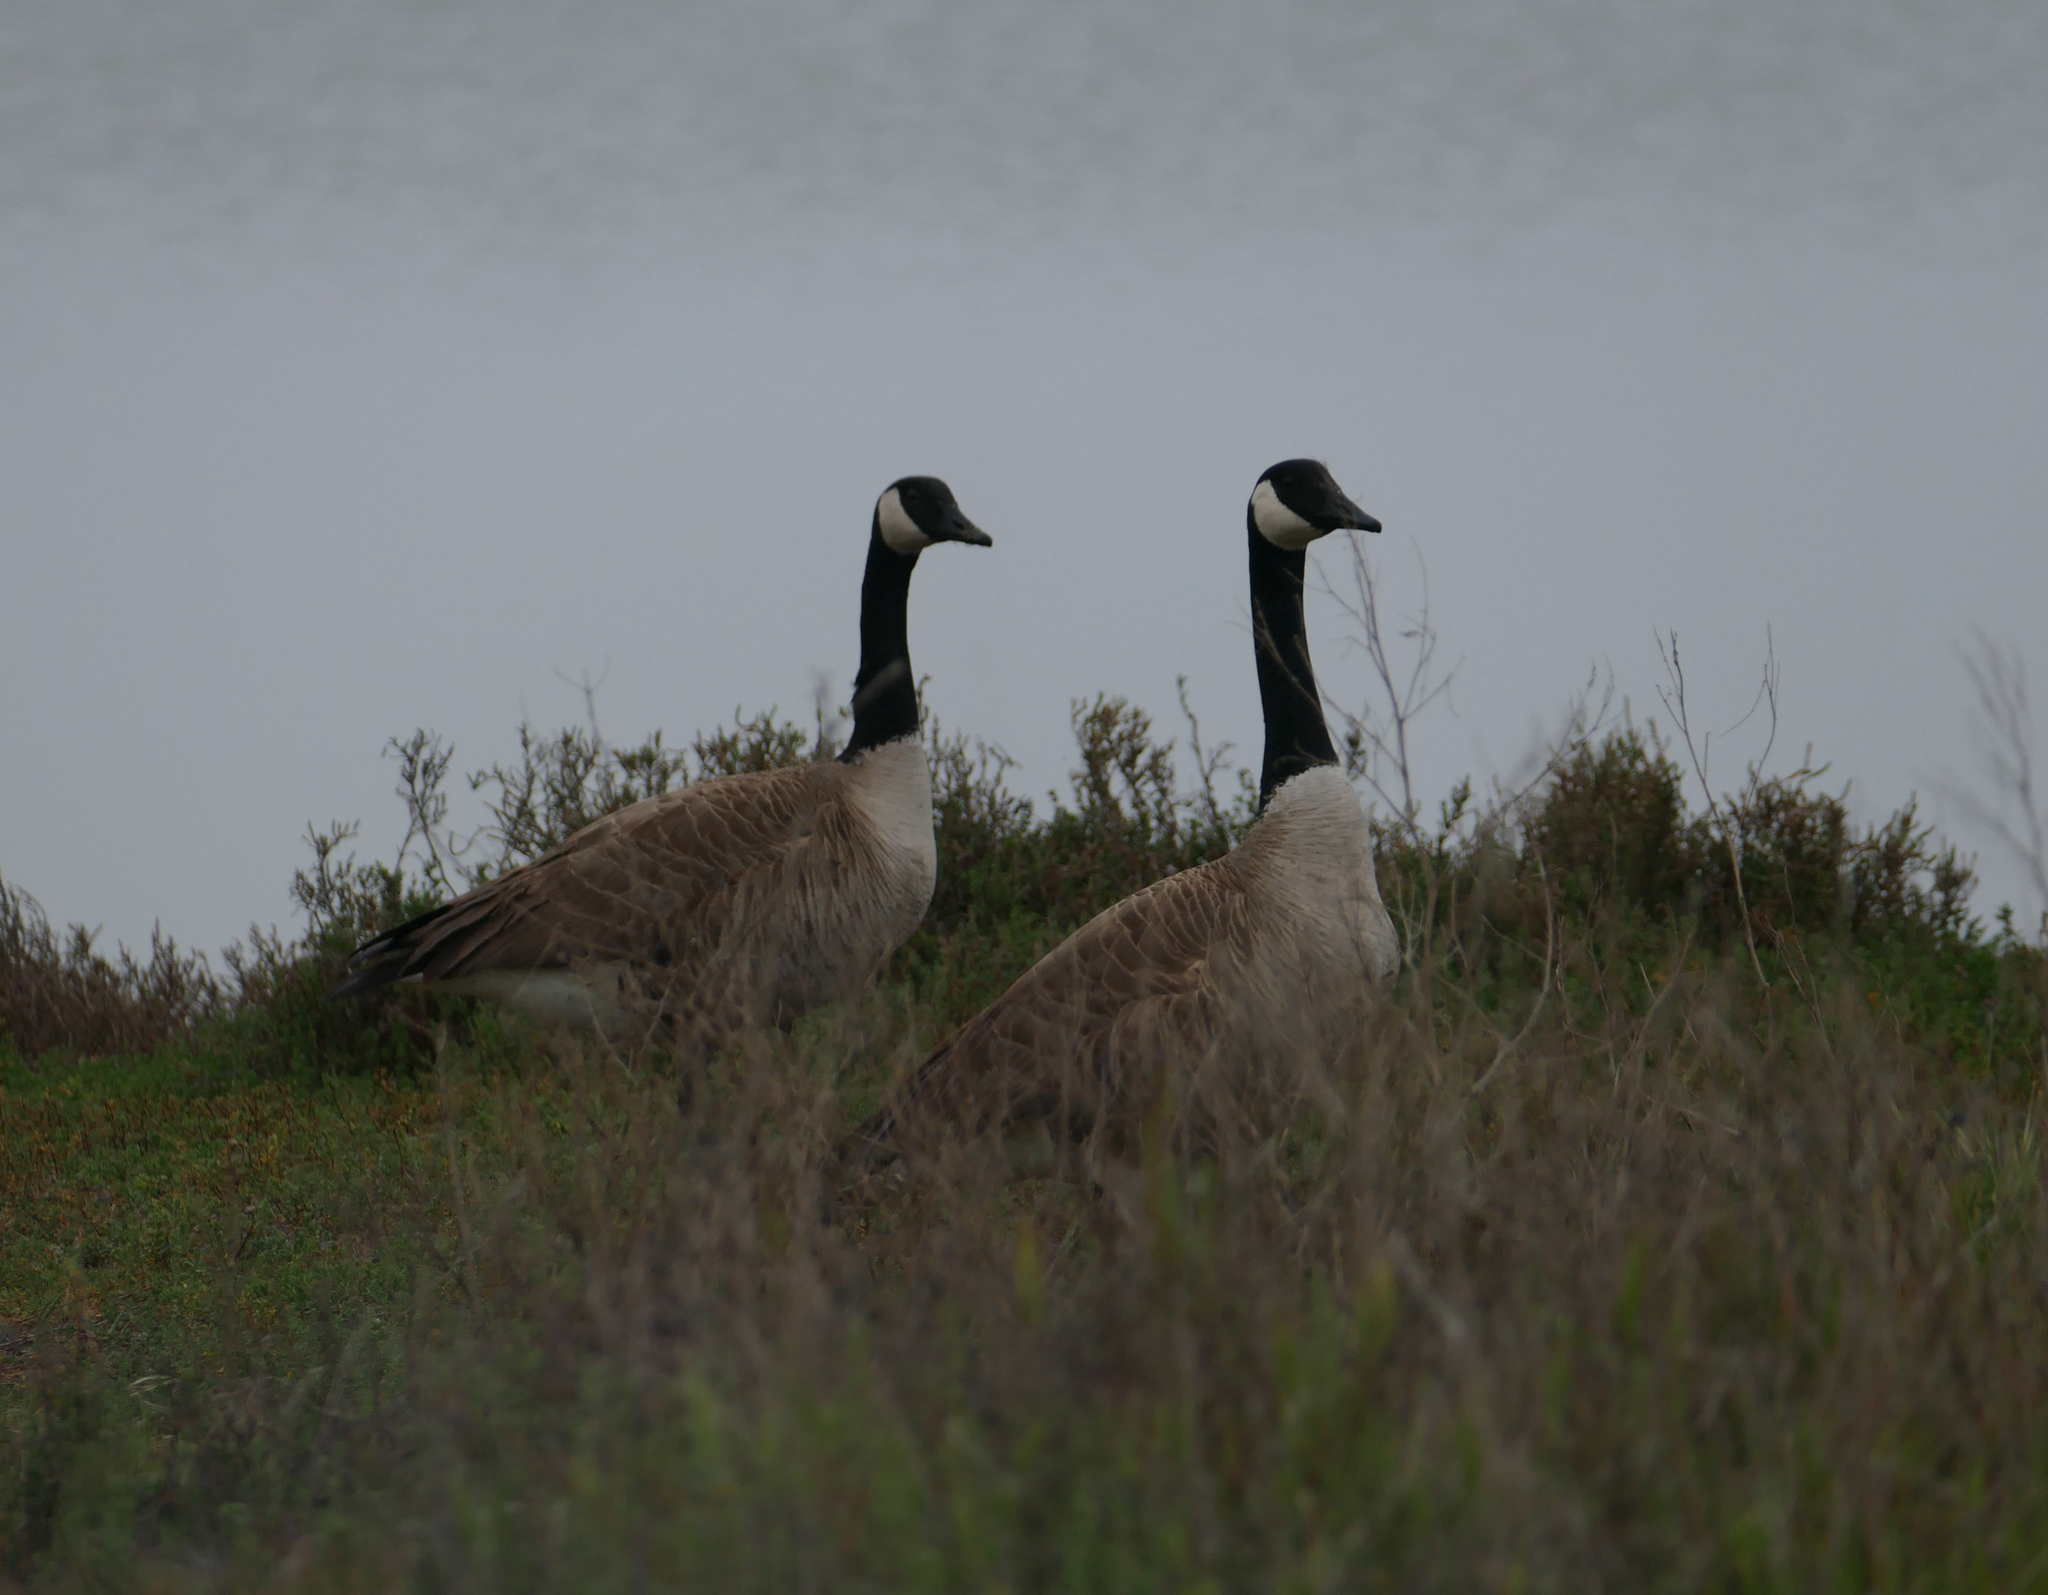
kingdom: Animalia
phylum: Chordata
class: Aves
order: Anseriformes
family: Anatidae
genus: Branta
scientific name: Branta canadensis
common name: Canada goose
